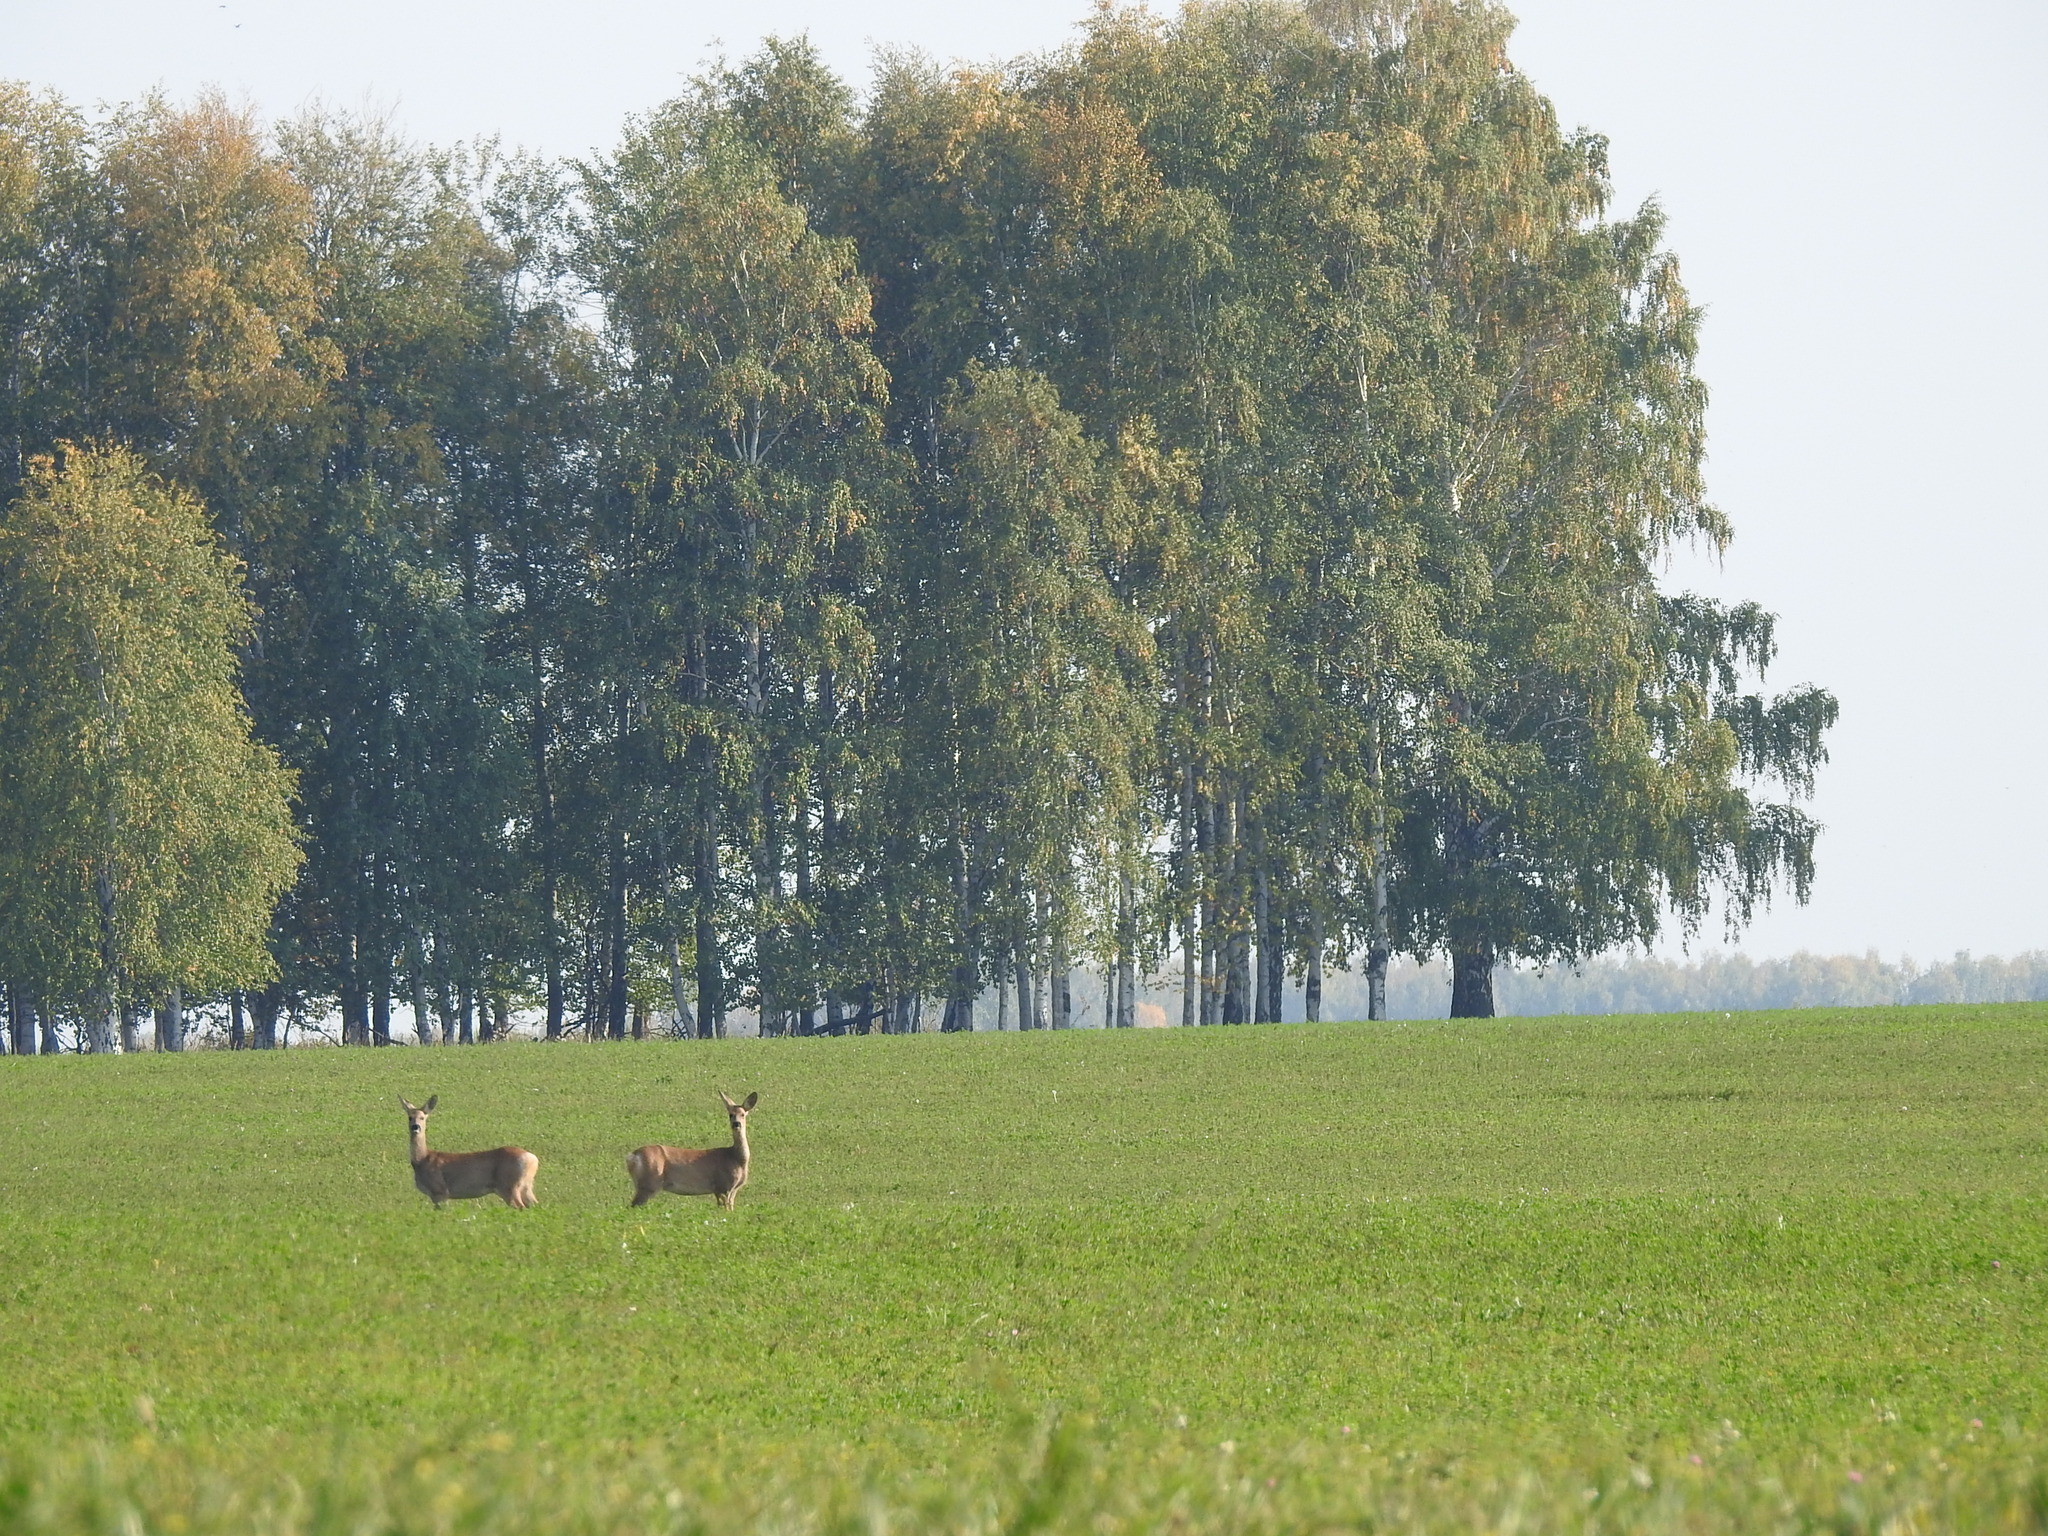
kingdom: Animalia
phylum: Chordata
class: Mammalia
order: Artiodactyla
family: Cervidae
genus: Capreolus
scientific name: Capreolus pygargus
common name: Siberian roe
